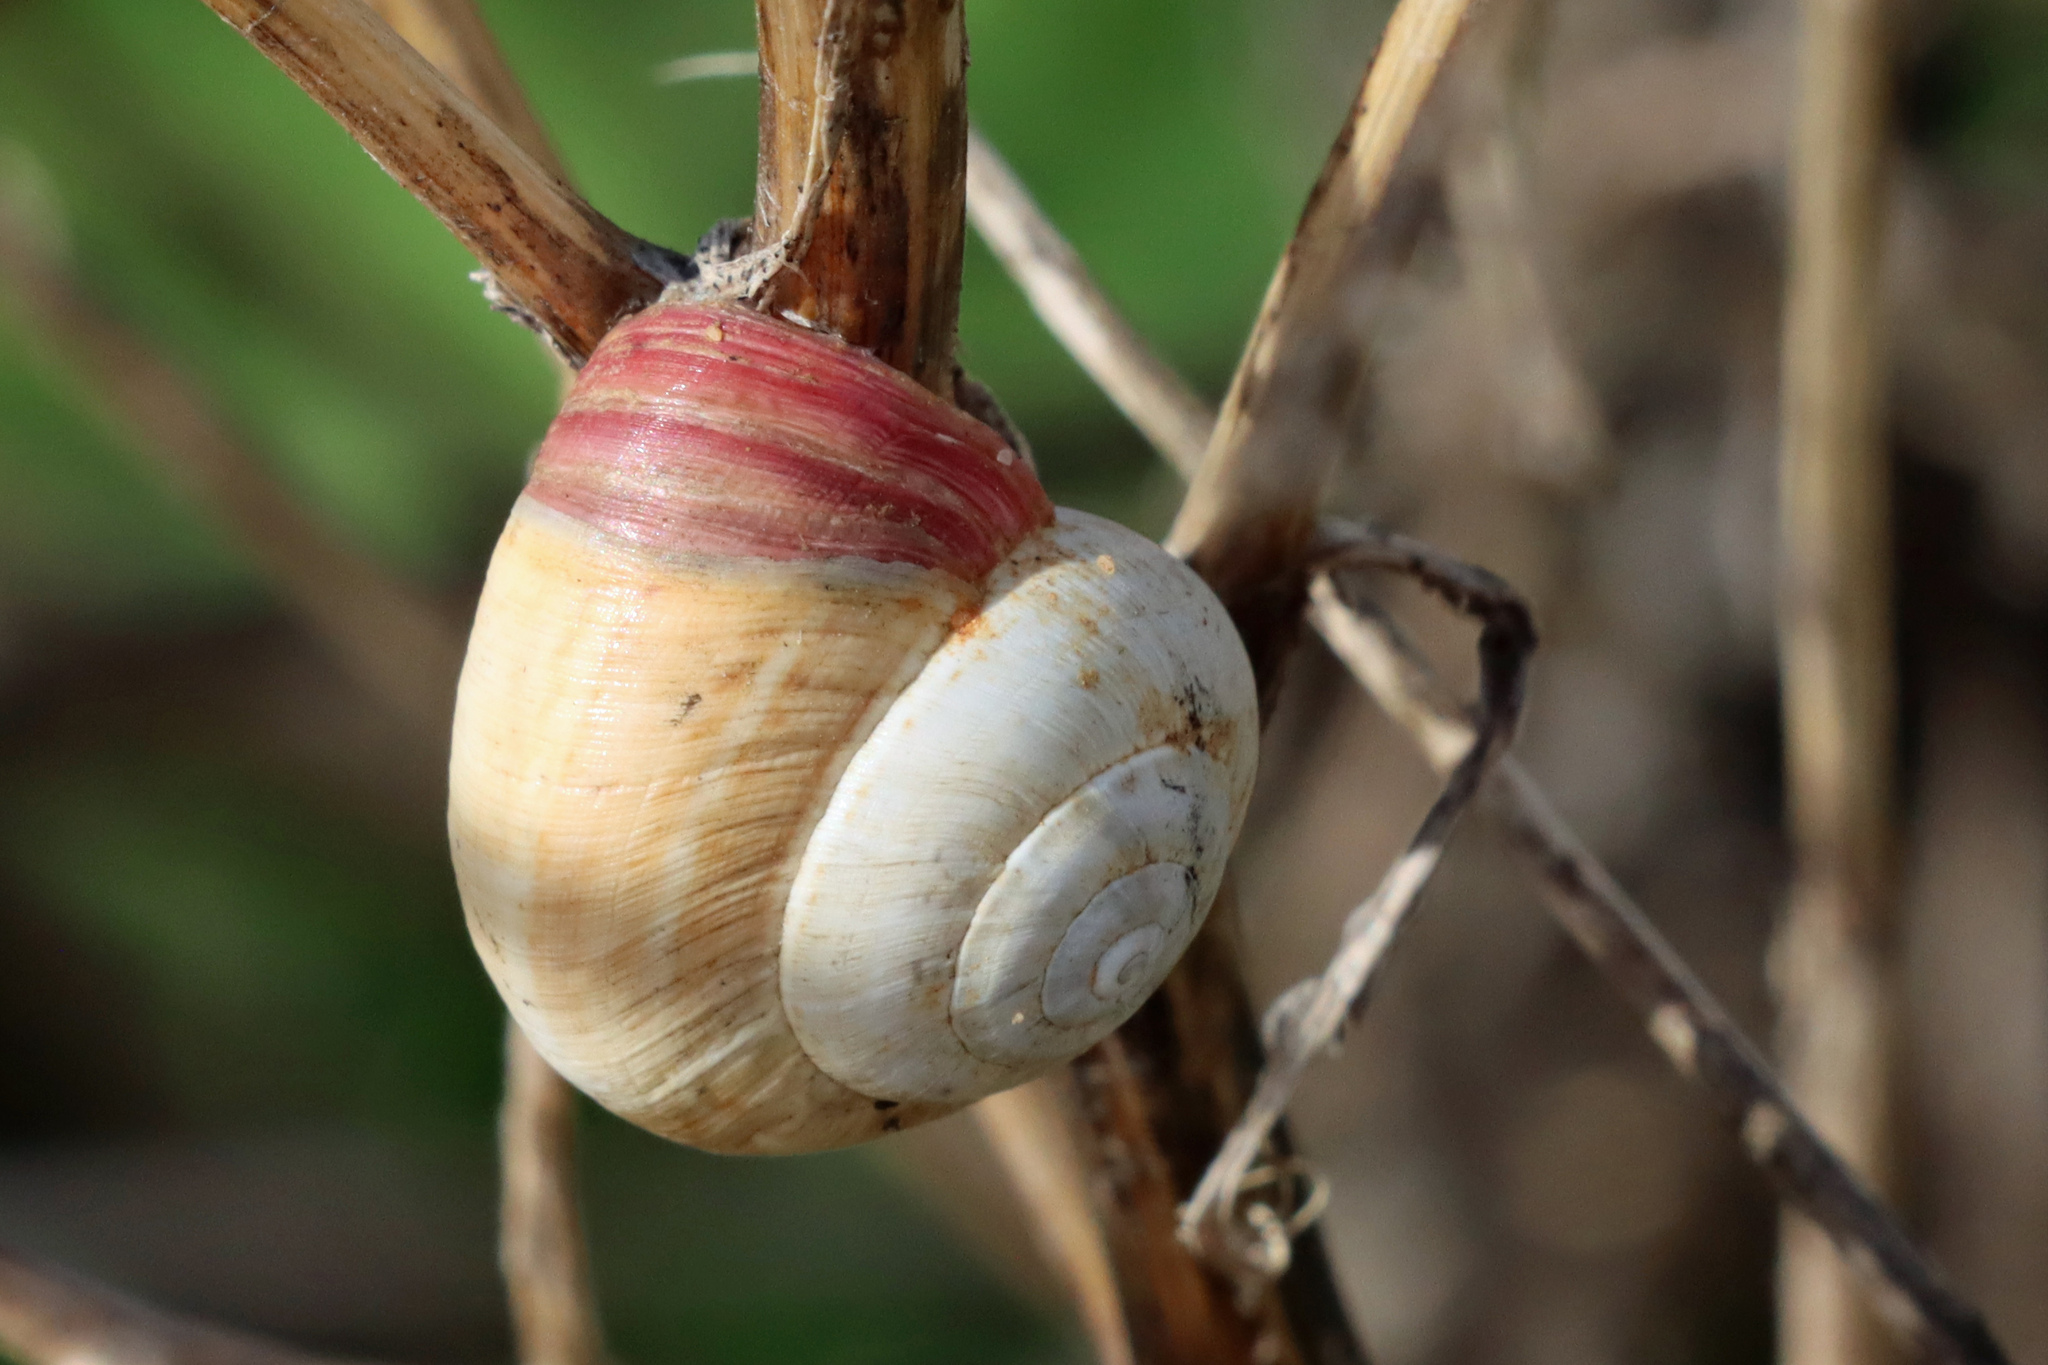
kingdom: Animalia
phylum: Mollusca
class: Gastropoda
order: Stylommatophora
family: Helicidae
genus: Theba
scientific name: Theba pisana
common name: White snail
